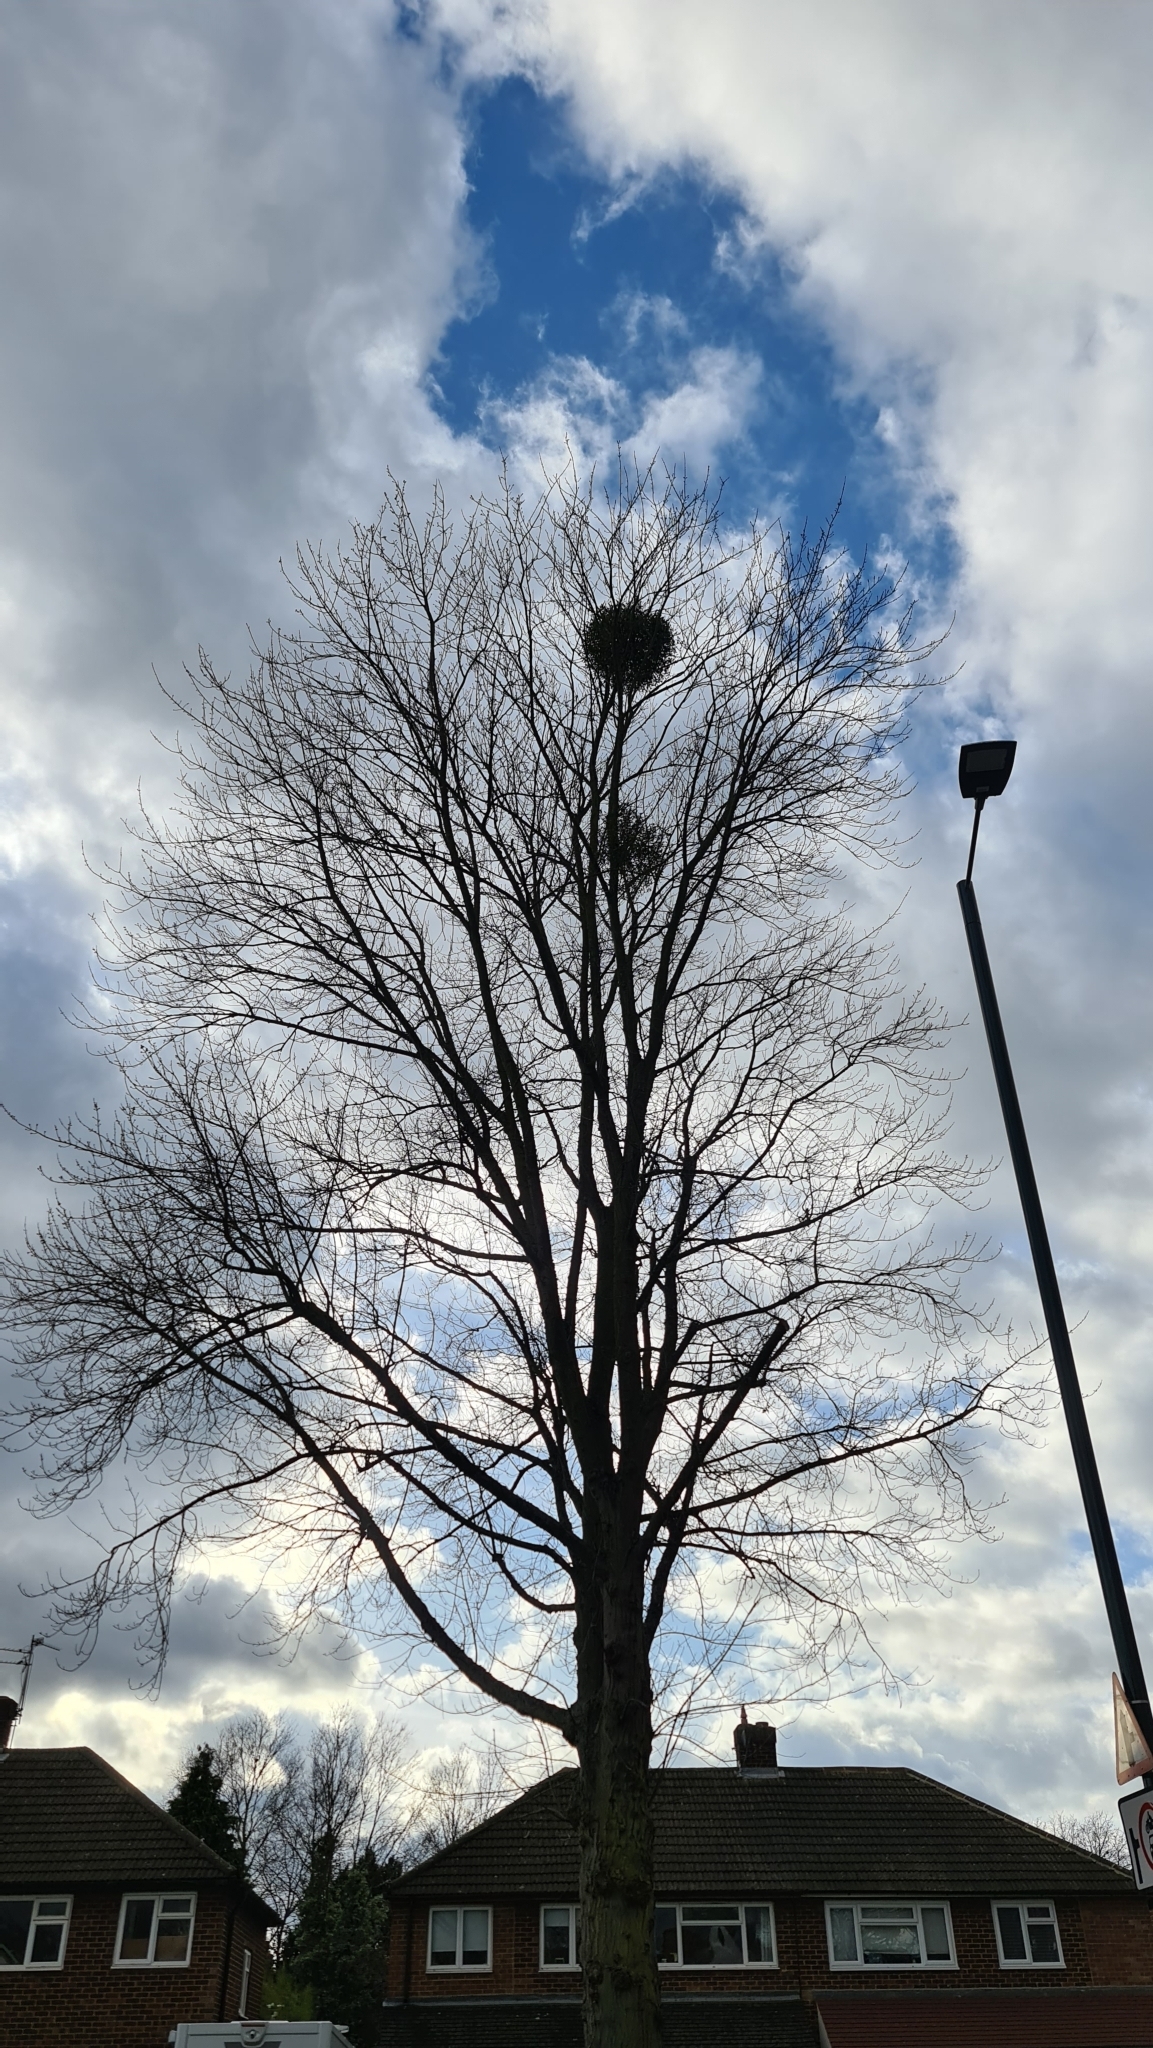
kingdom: Plantae
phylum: Tracheophyta
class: Magnoliopsida
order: Santalales
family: Viscaceae
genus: Viscum
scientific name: Viscum album
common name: Mistletoe
